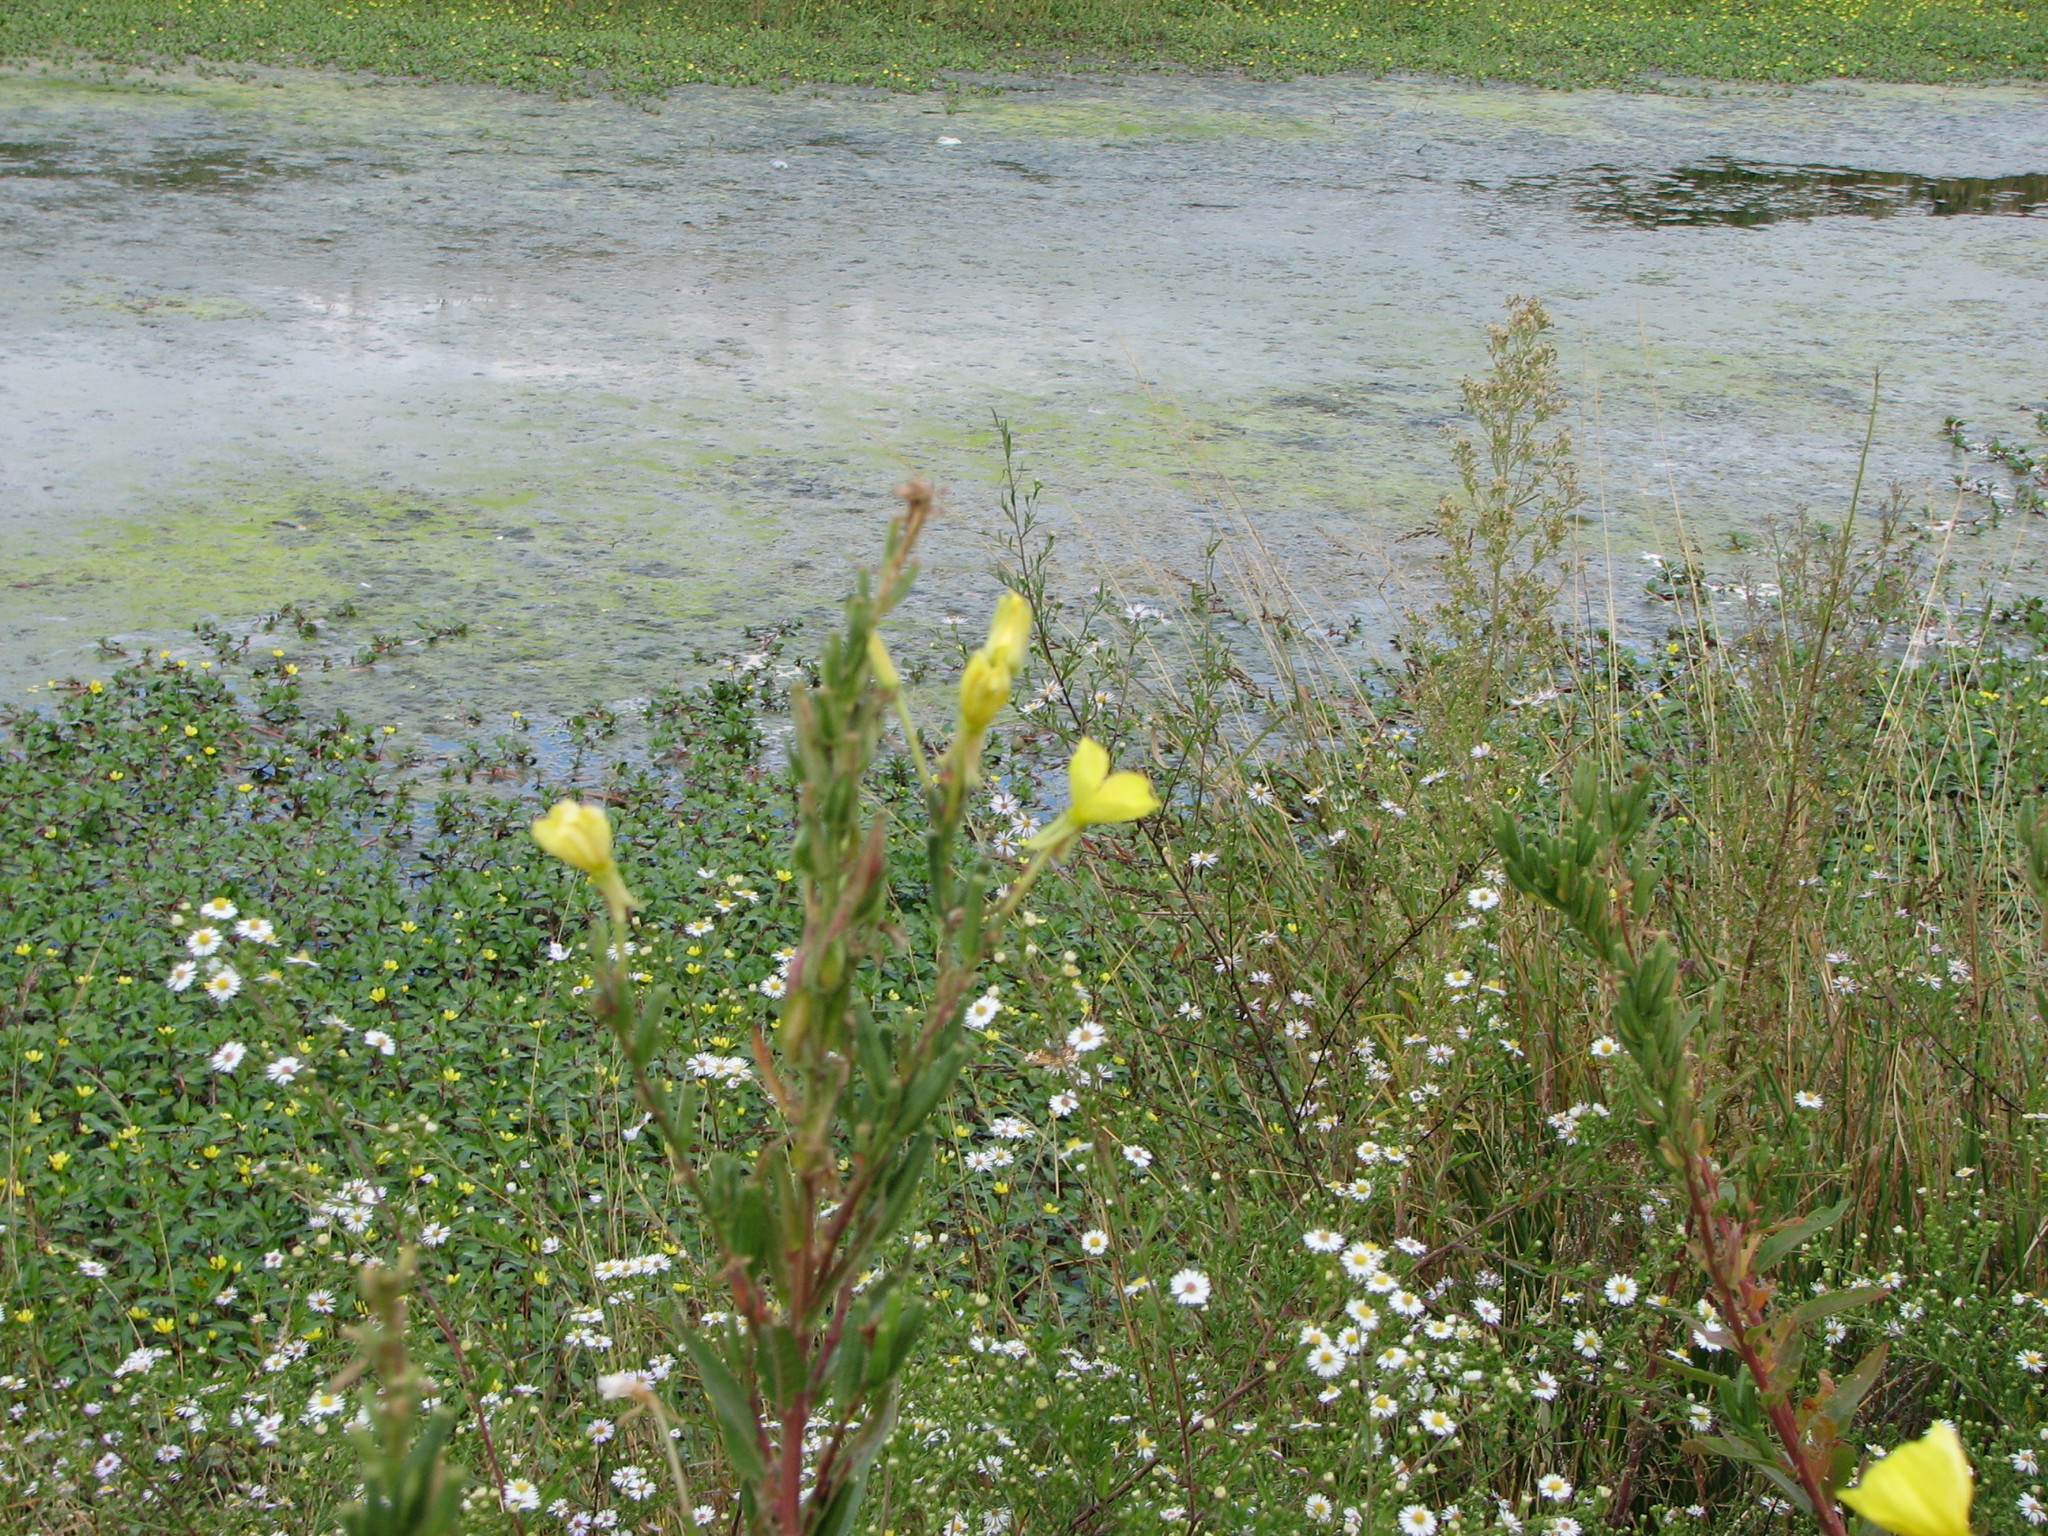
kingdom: Plantae
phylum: Tracheophyta
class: Magnoliopsida
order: Myrtales
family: Onagraceae
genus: Oenothera
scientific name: Oenothera biennis
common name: Common evening-primrose
